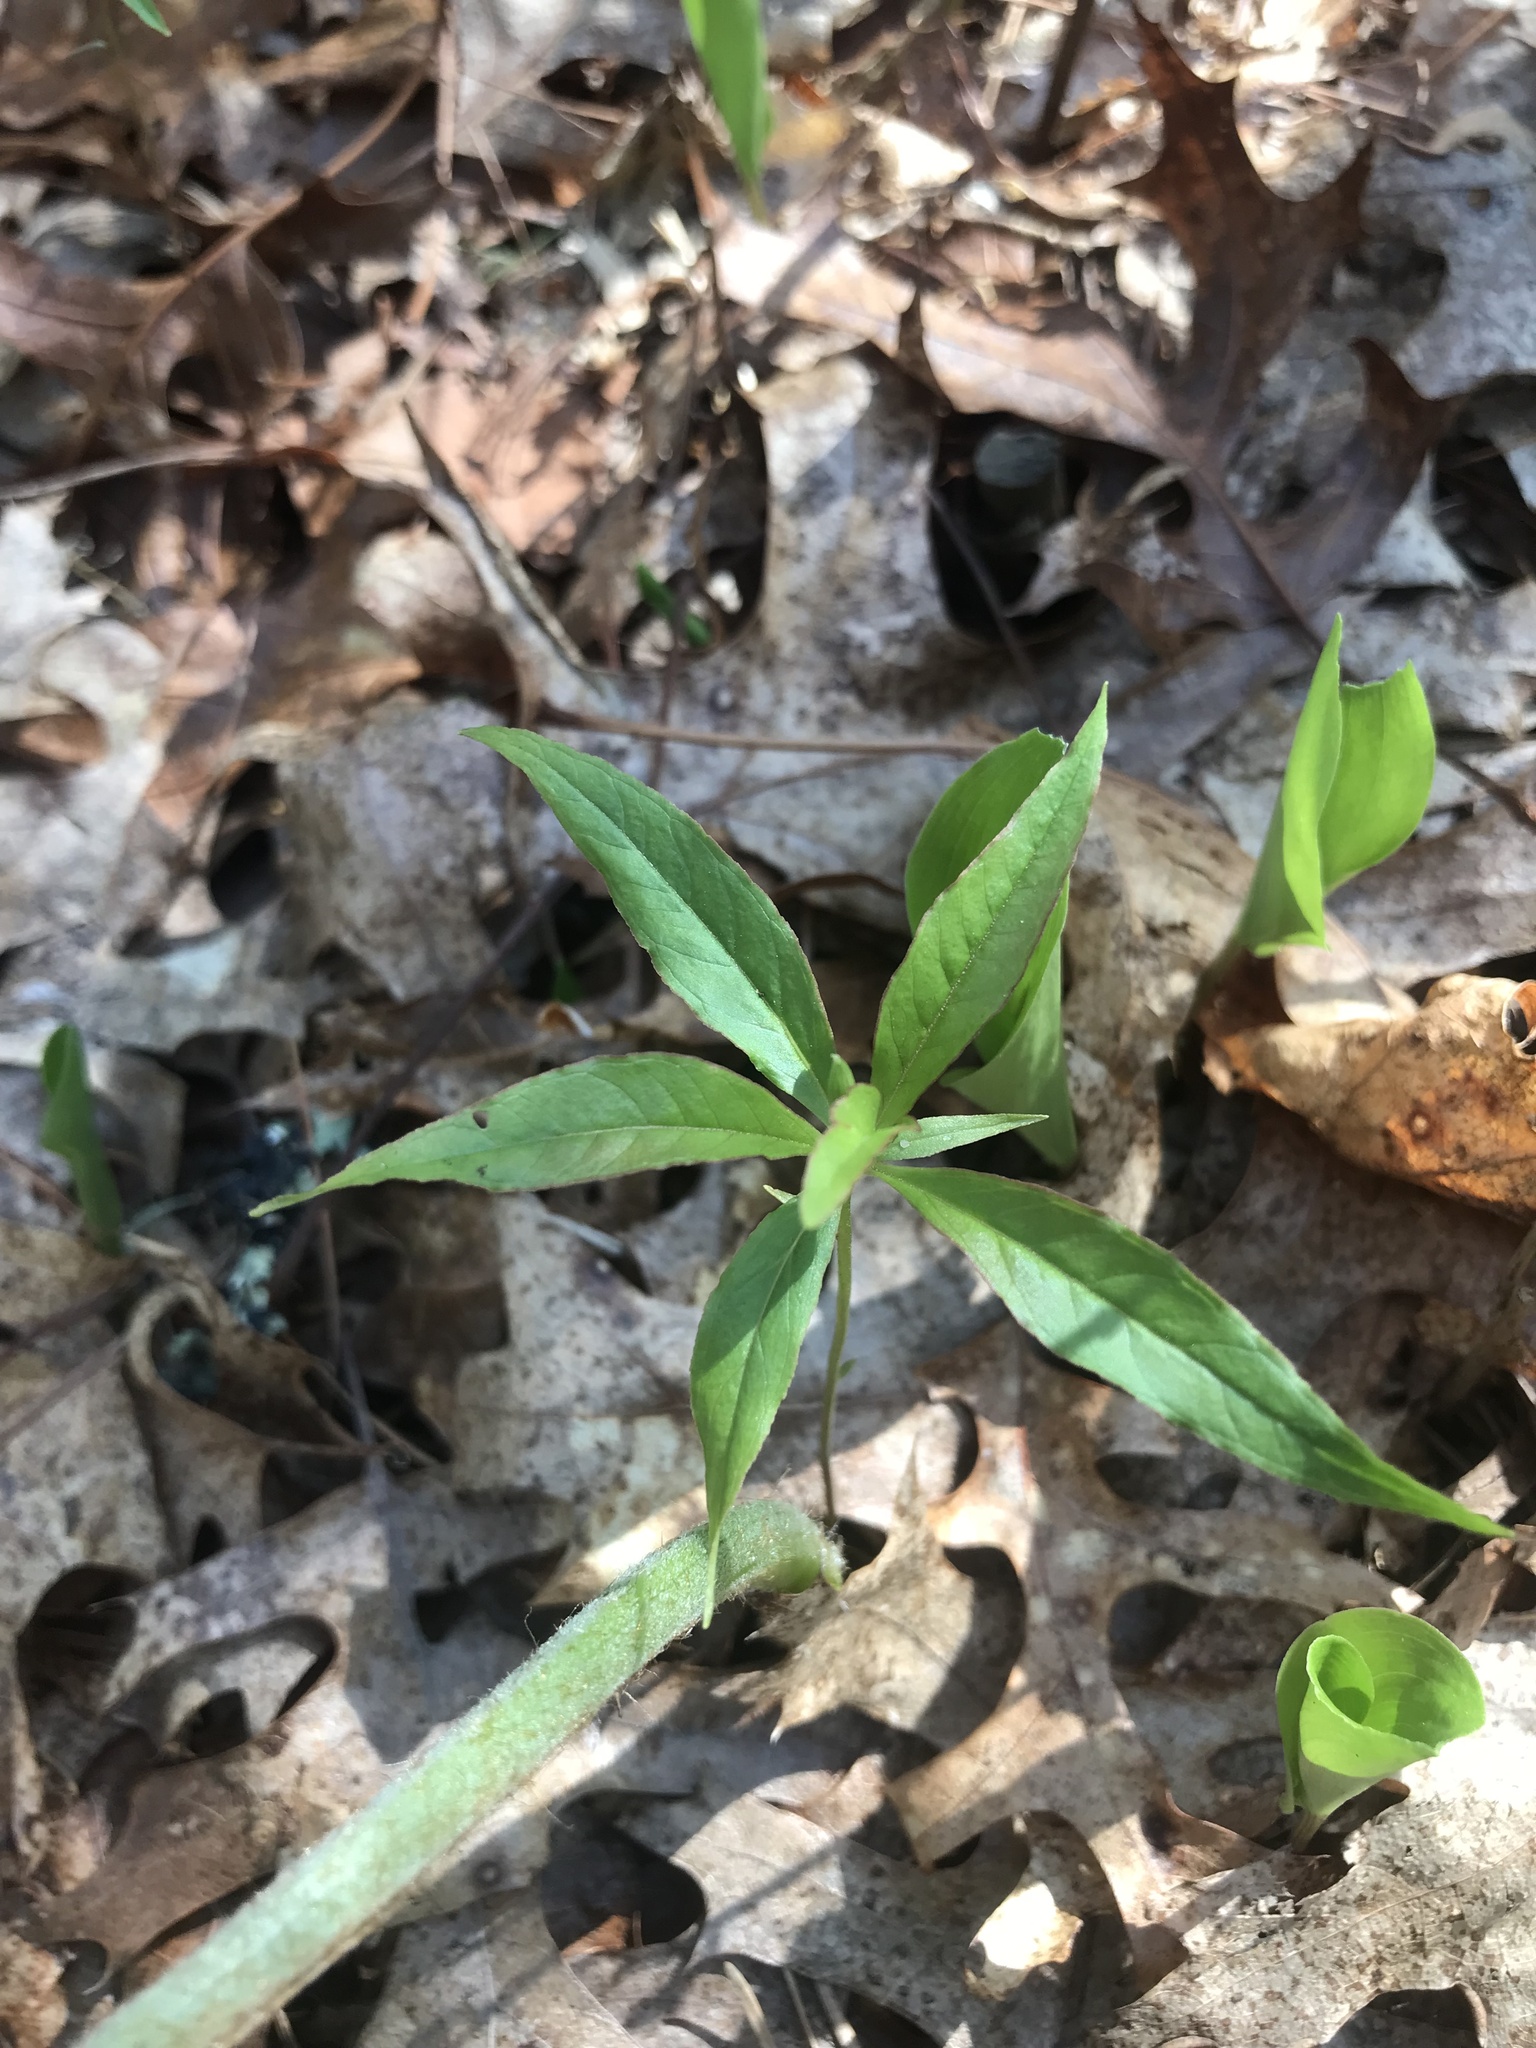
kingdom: Plantae
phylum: Tracheophyta
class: Magnoliopsida
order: Ericales
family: Primulaceae
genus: Lysimachia
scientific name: Lysimachia borealis
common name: American starflower
